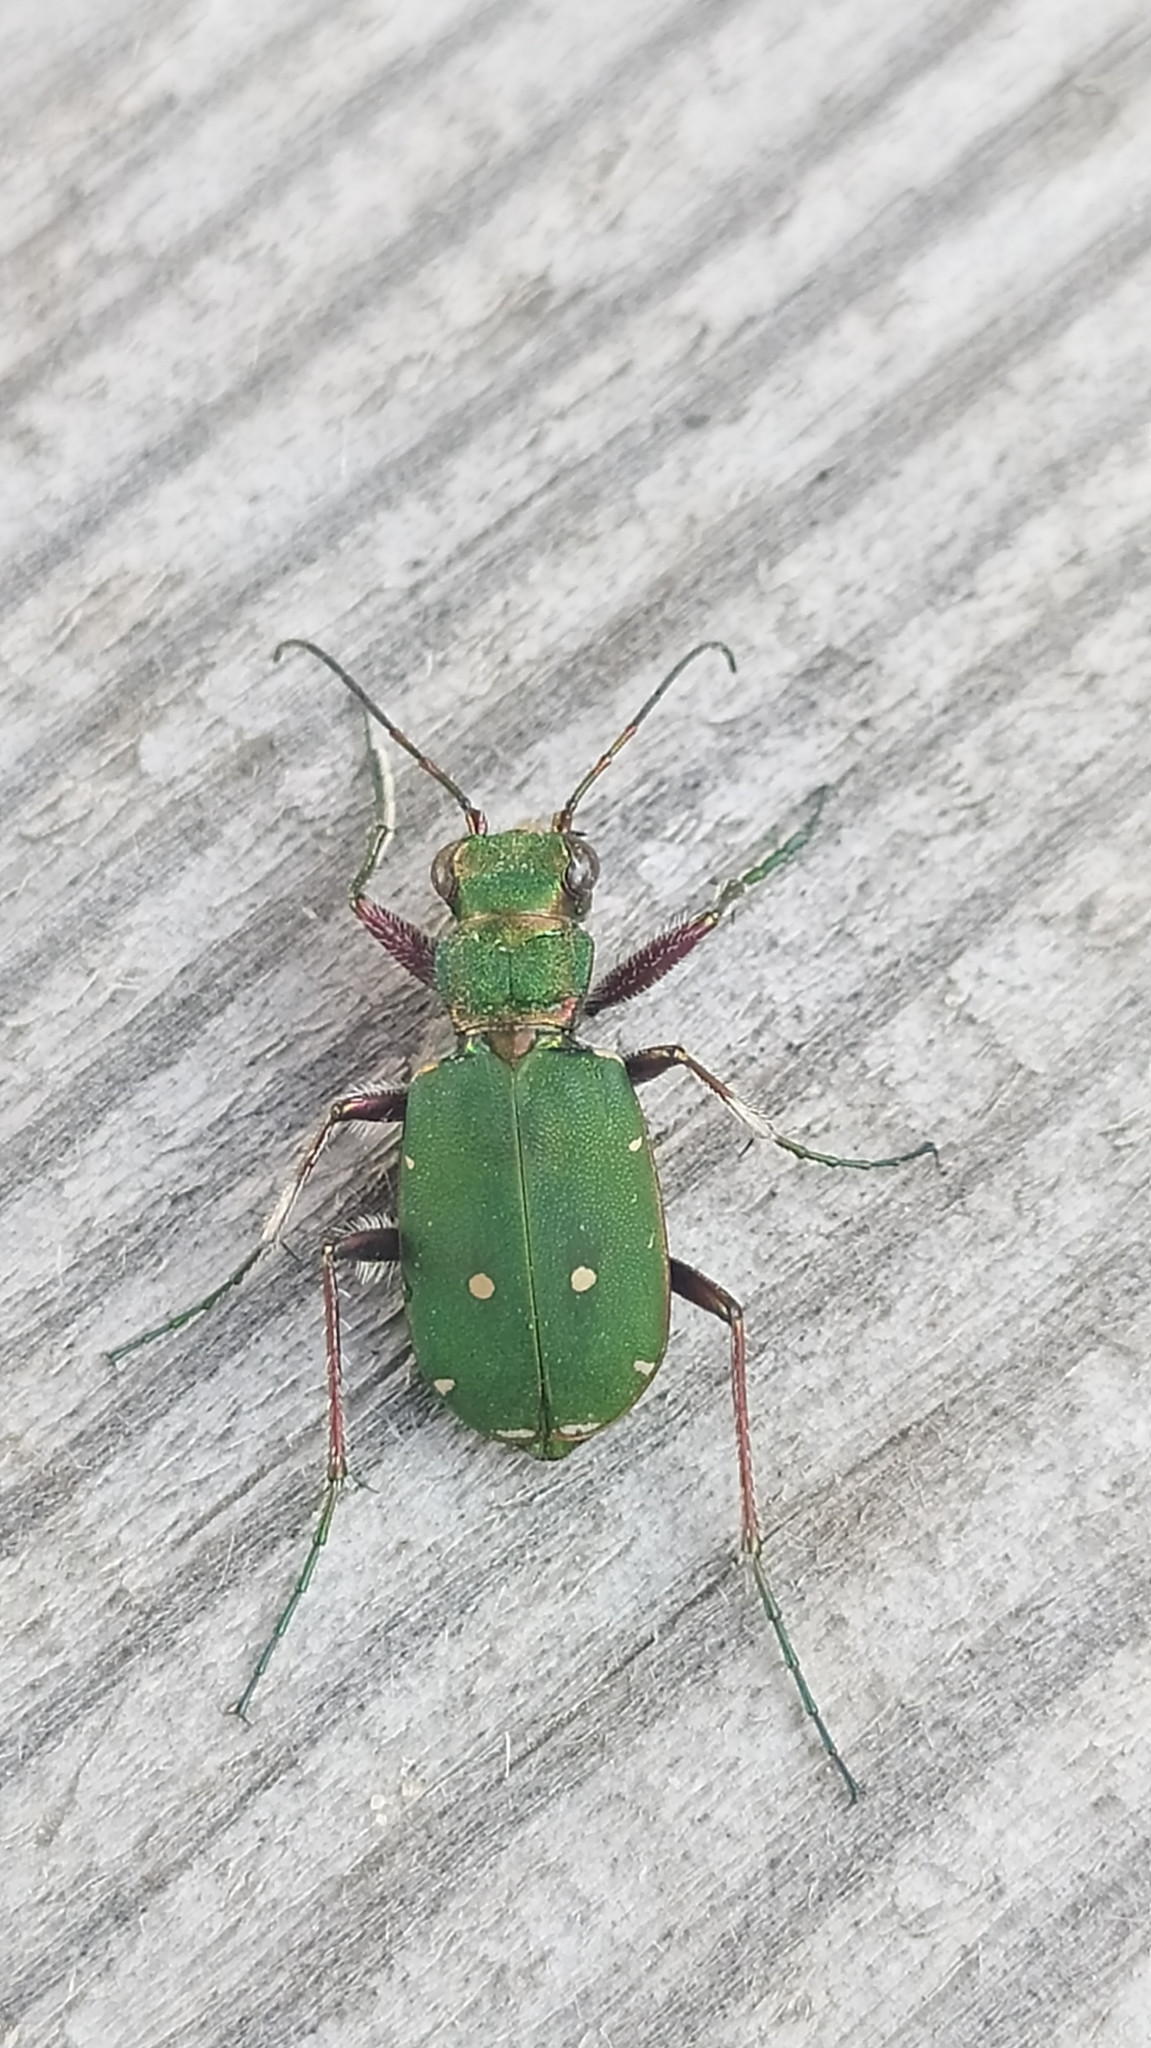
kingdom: Animalia
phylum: Arthropoda
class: Insecta
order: Coleoptera
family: Carabidae
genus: Cicindela
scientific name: Cicindela campestris
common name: Common tiger beetle
